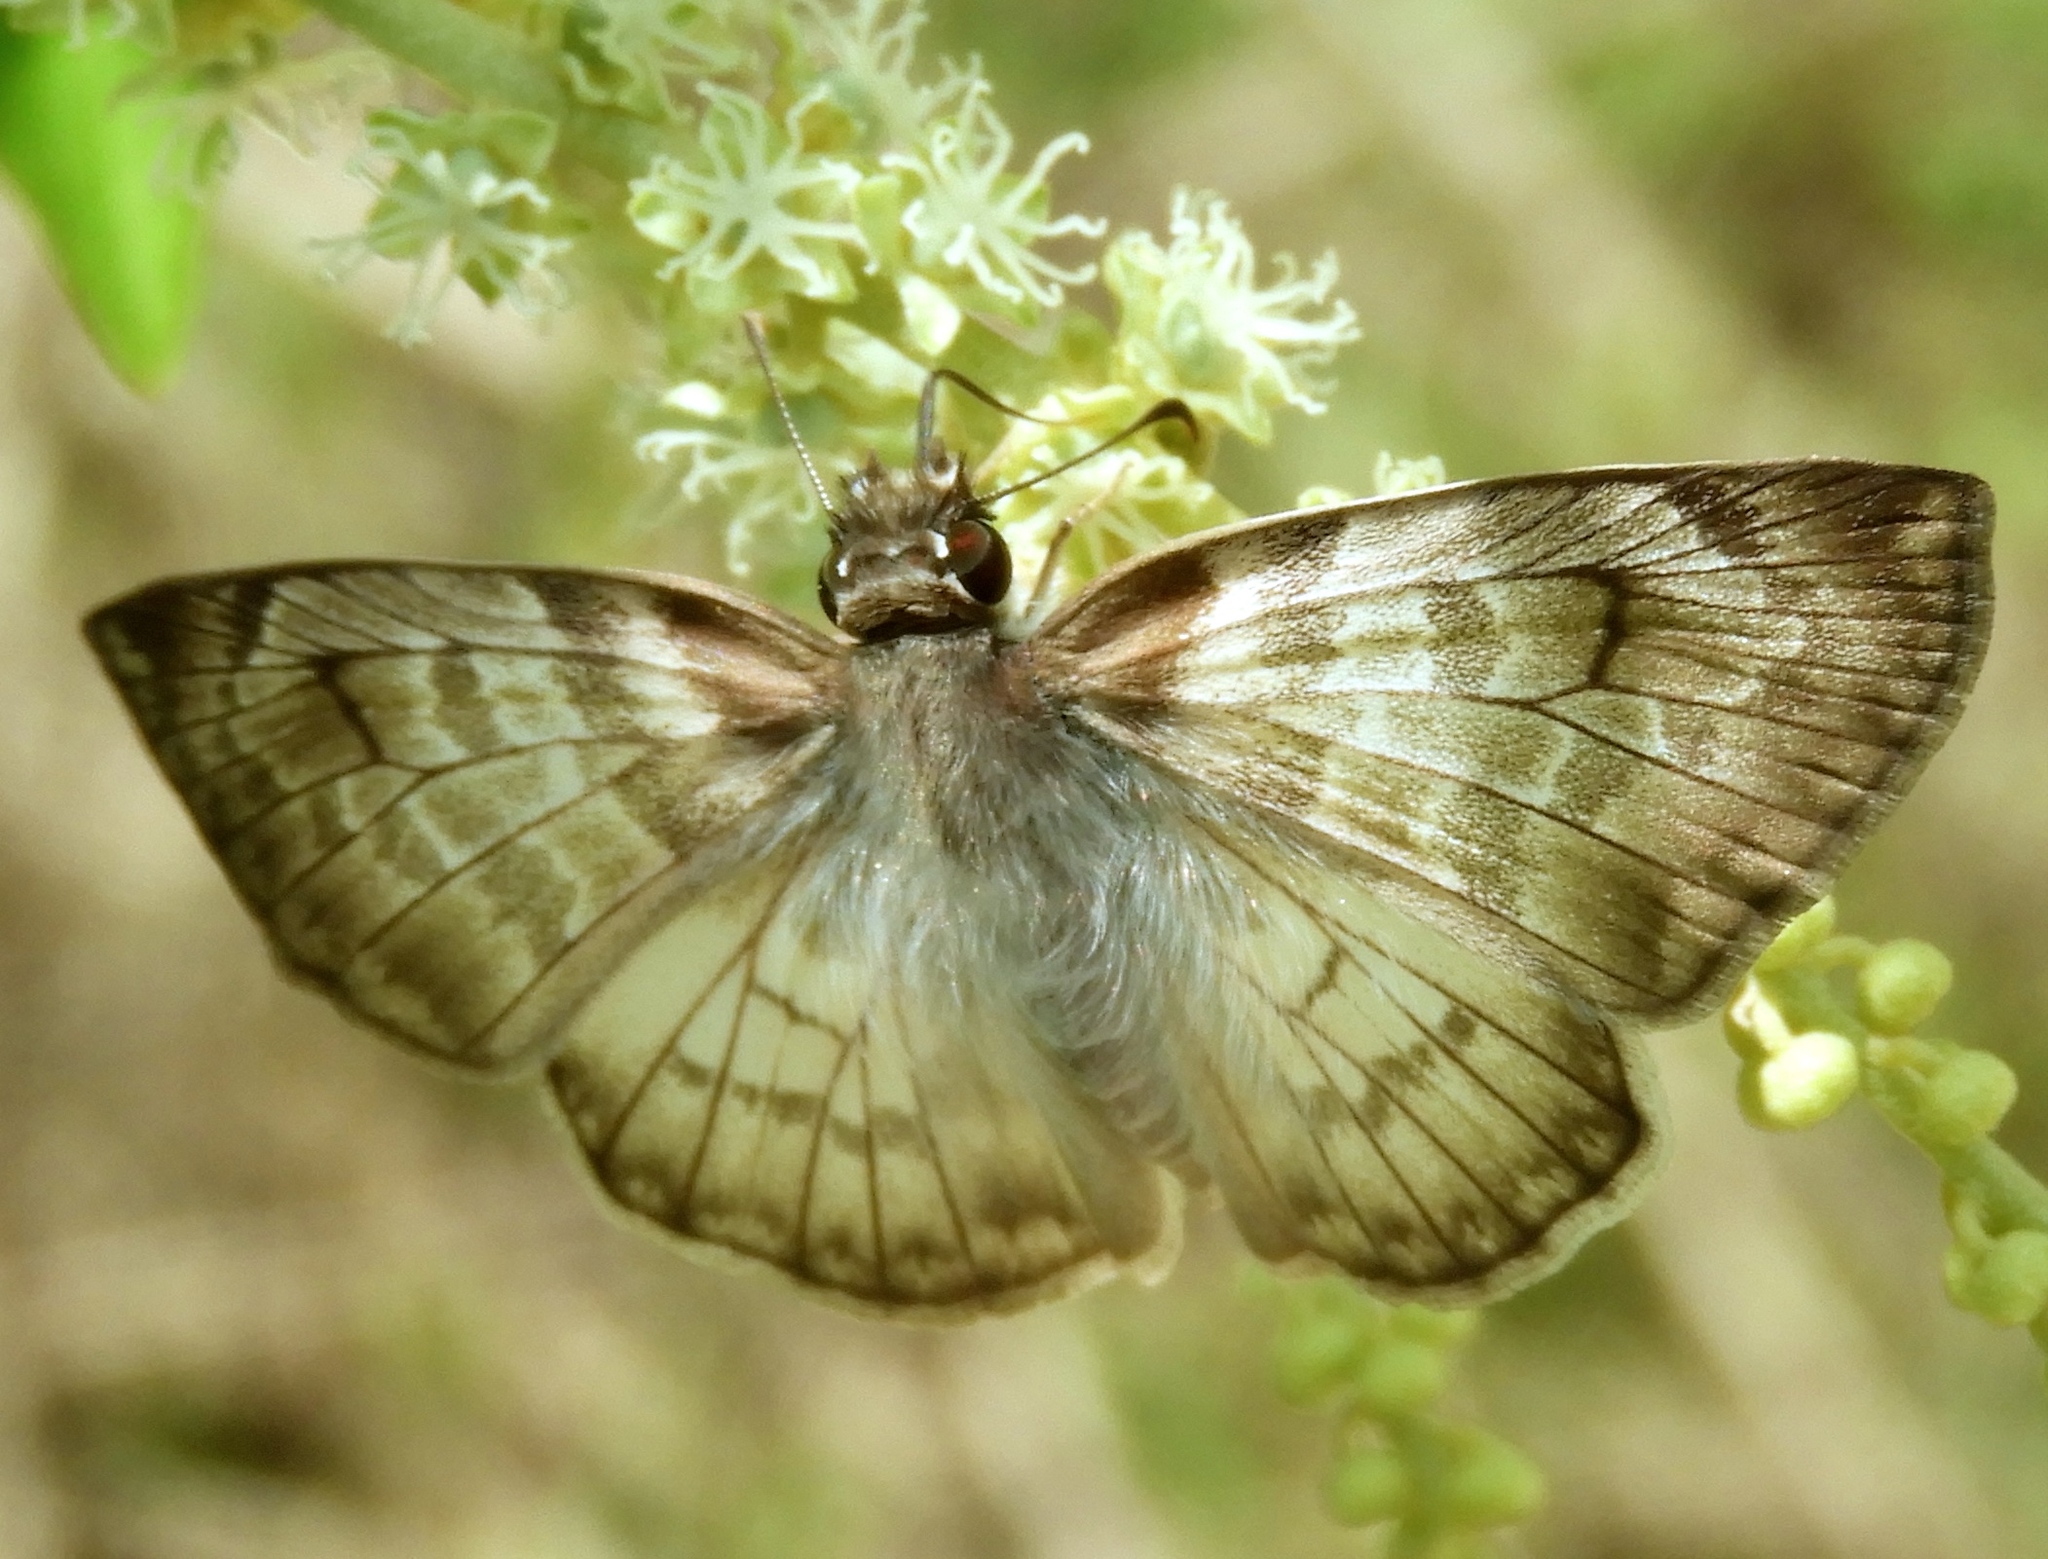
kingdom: Animalia
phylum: Arthropoda
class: Insecta
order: Lepidoptera
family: Hesperiidae
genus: Mylon
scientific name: Mylon pelopidas
